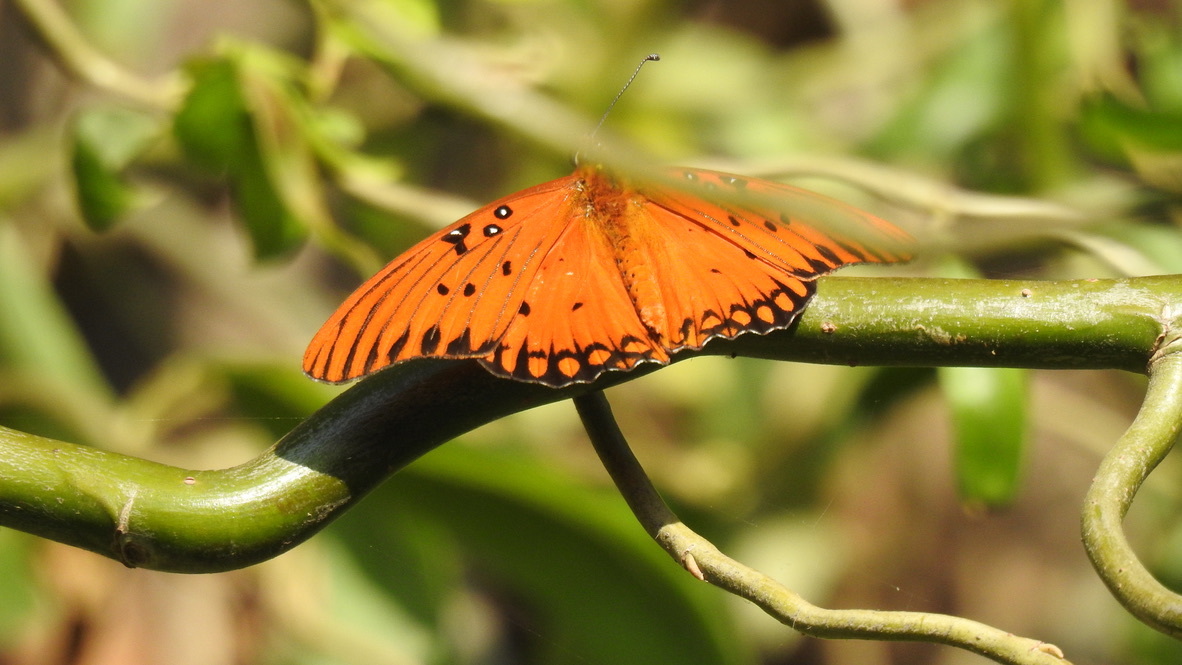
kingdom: Animalia
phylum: Arthropoda
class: Insecta
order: Lepidoptera
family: Nymphalidae
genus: Dione
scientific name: Dione vanillae
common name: Gulf fritillary
